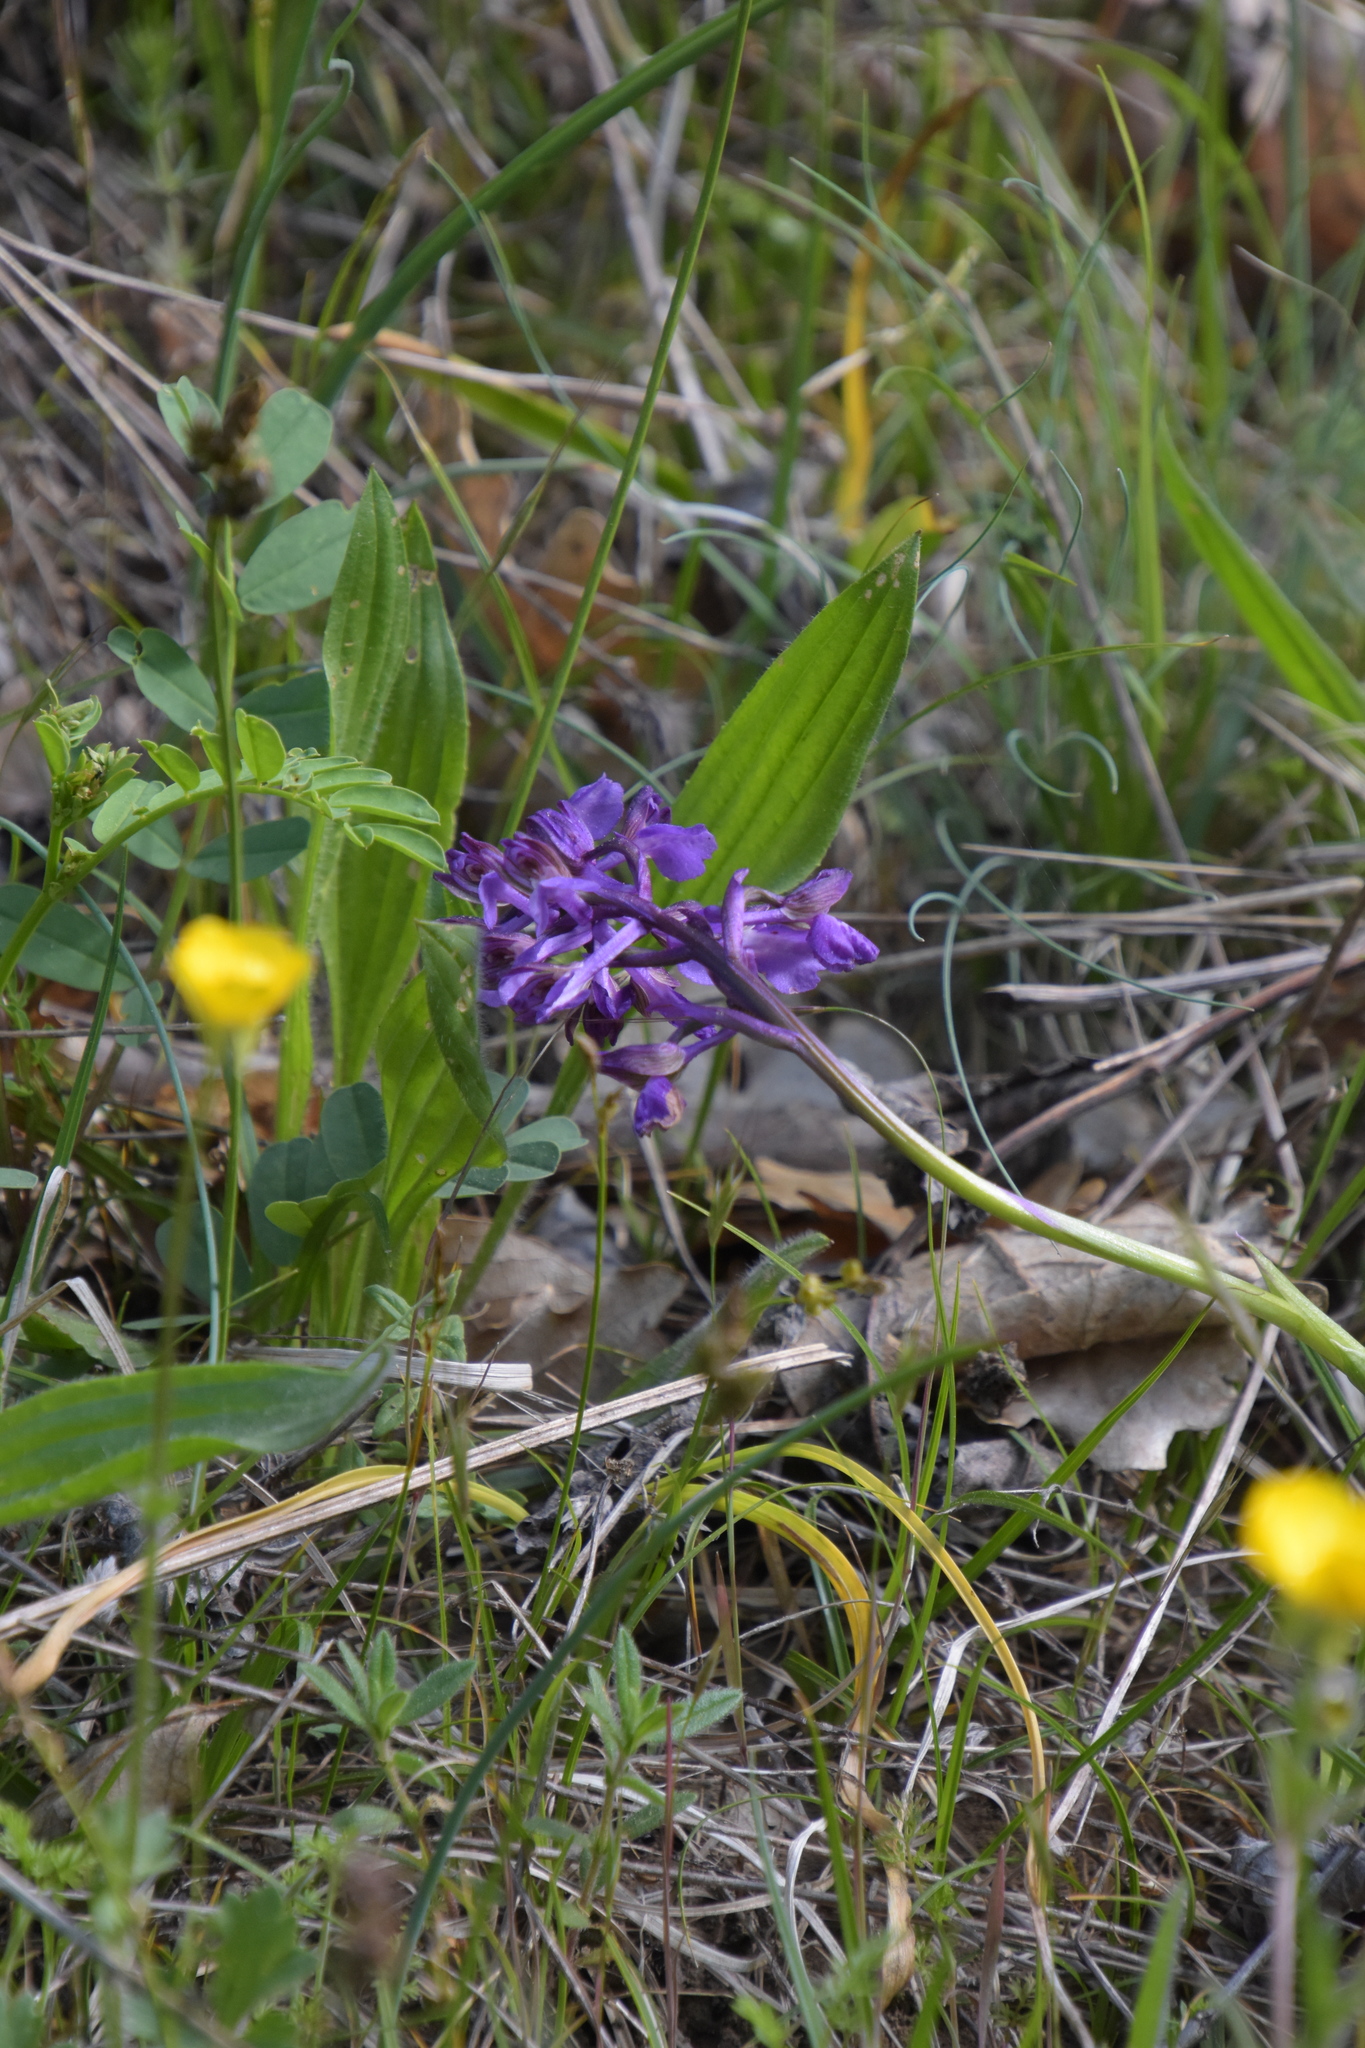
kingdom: Plantae
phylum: Tracheophyta
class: Liliopsida
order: Asparagales
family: Orchidaceae
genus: Anacamptis
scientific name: Anacamptis morio
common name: Green-winged orchid
